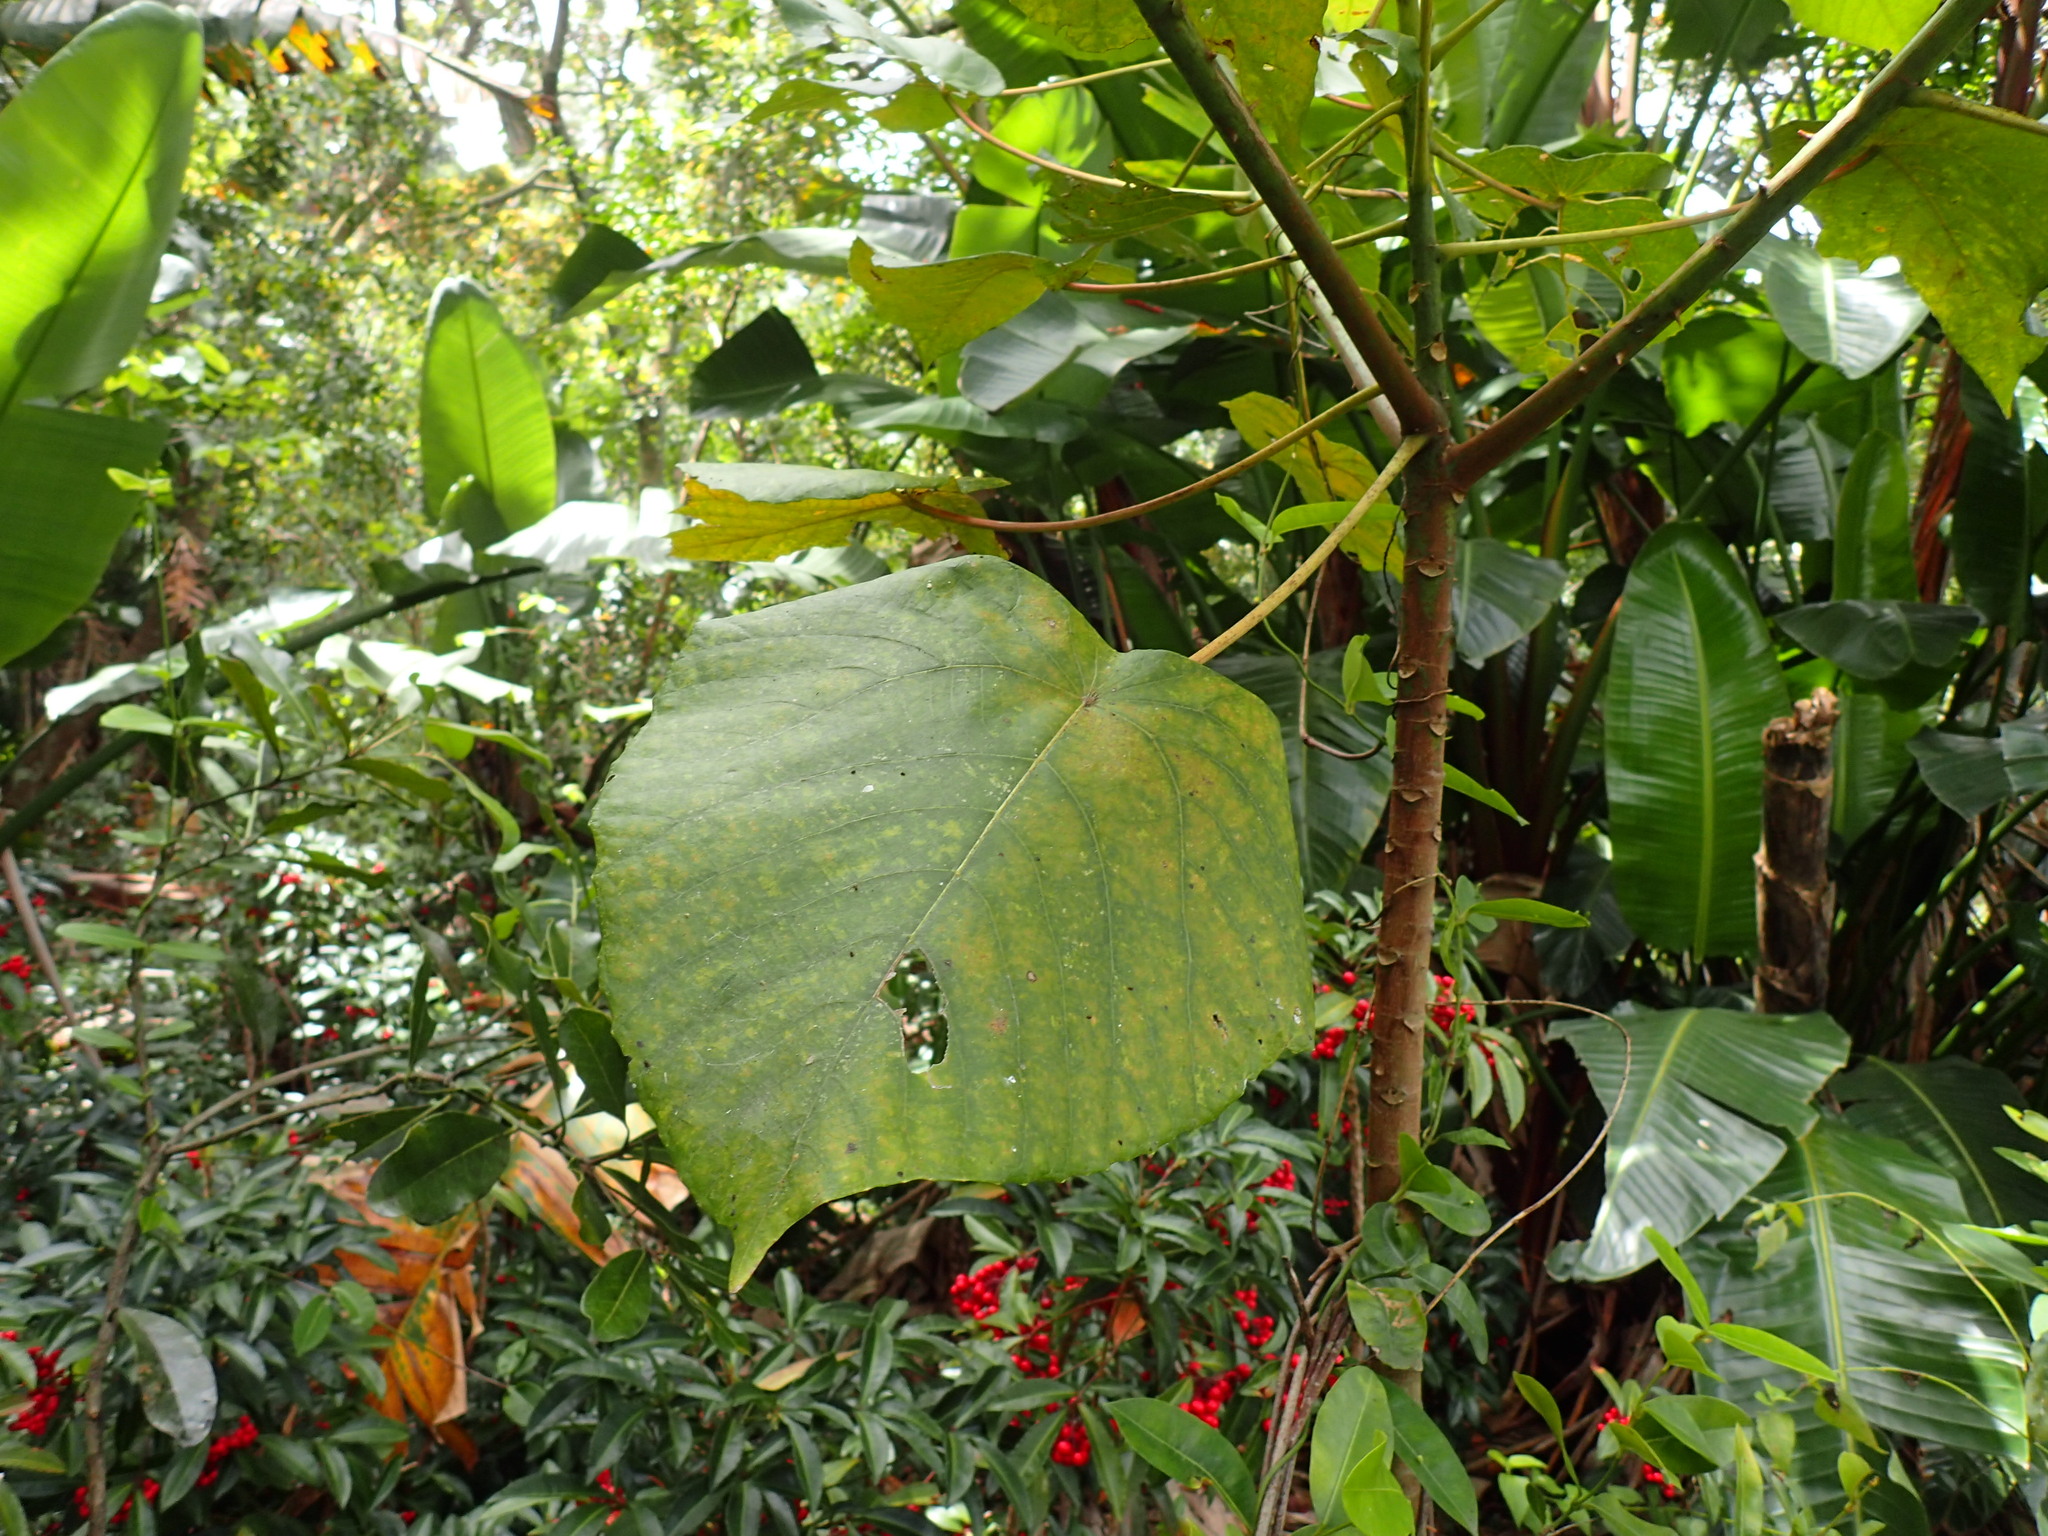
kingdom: Plantae
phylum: Tracheophyta
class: Magnoliopsida
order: Malpighiales
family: Euphorbiaceae
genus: Macaranga
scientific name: Macaranga capensis
